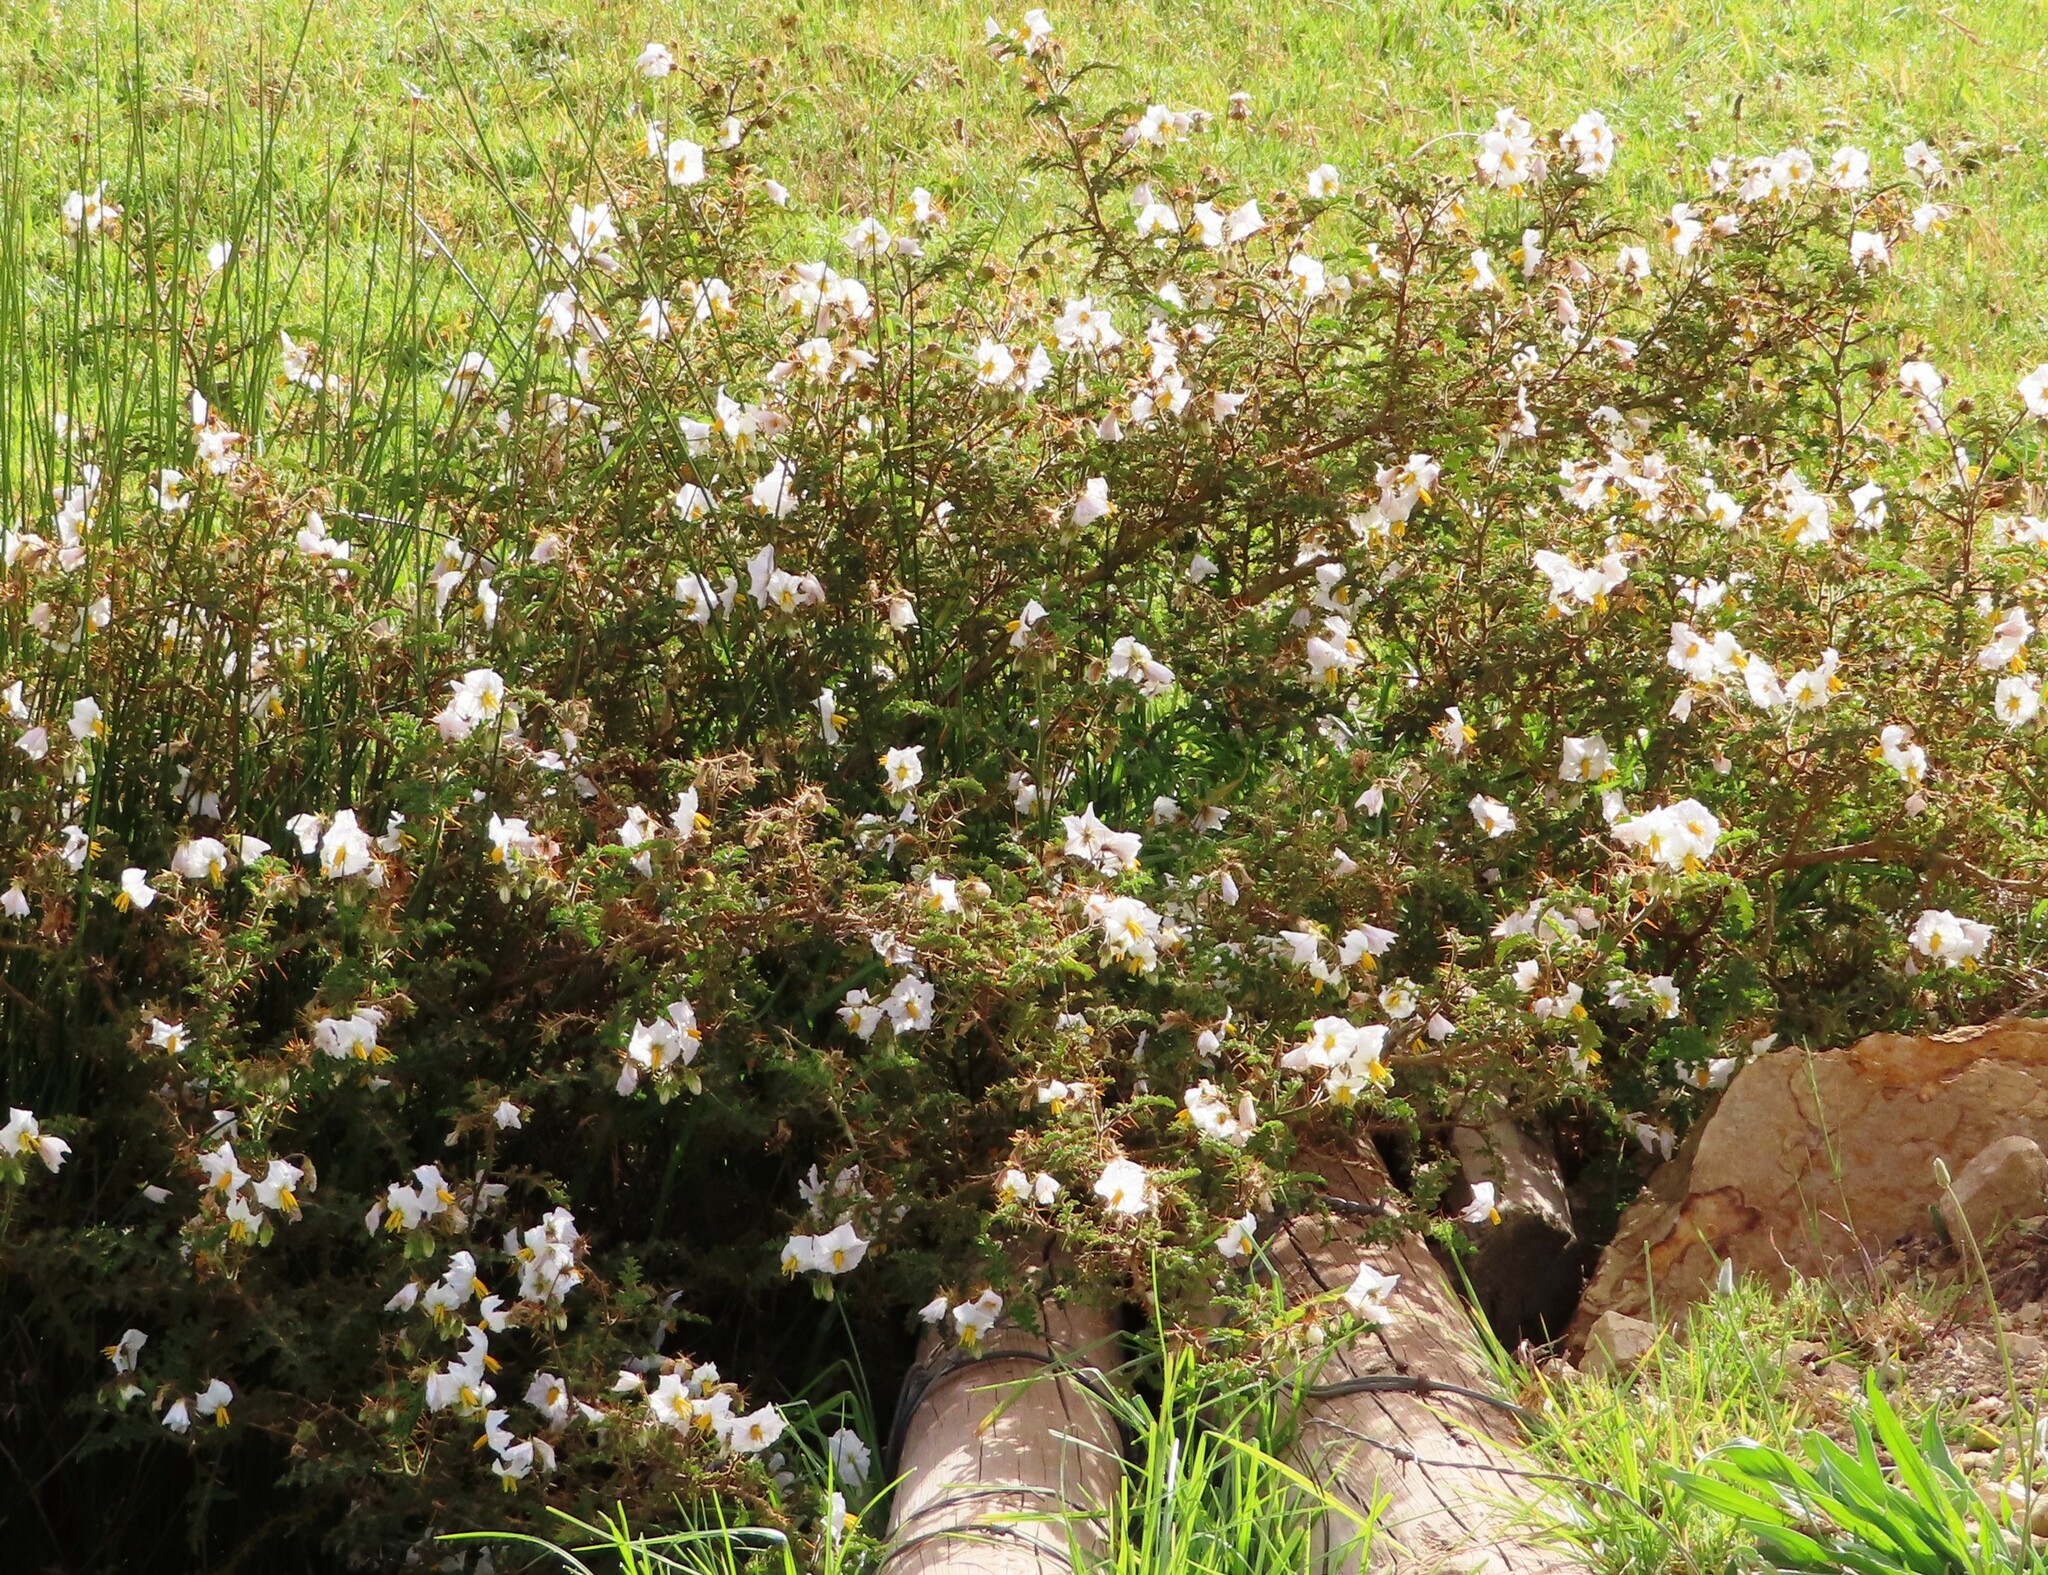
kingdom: Plantae
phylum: Tracheophyta
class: Magnoliopsida
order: Solanales
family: Solanaceae
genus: Solanum
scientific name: Solanum sisymbriifolium
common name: Red buffalo-bur
